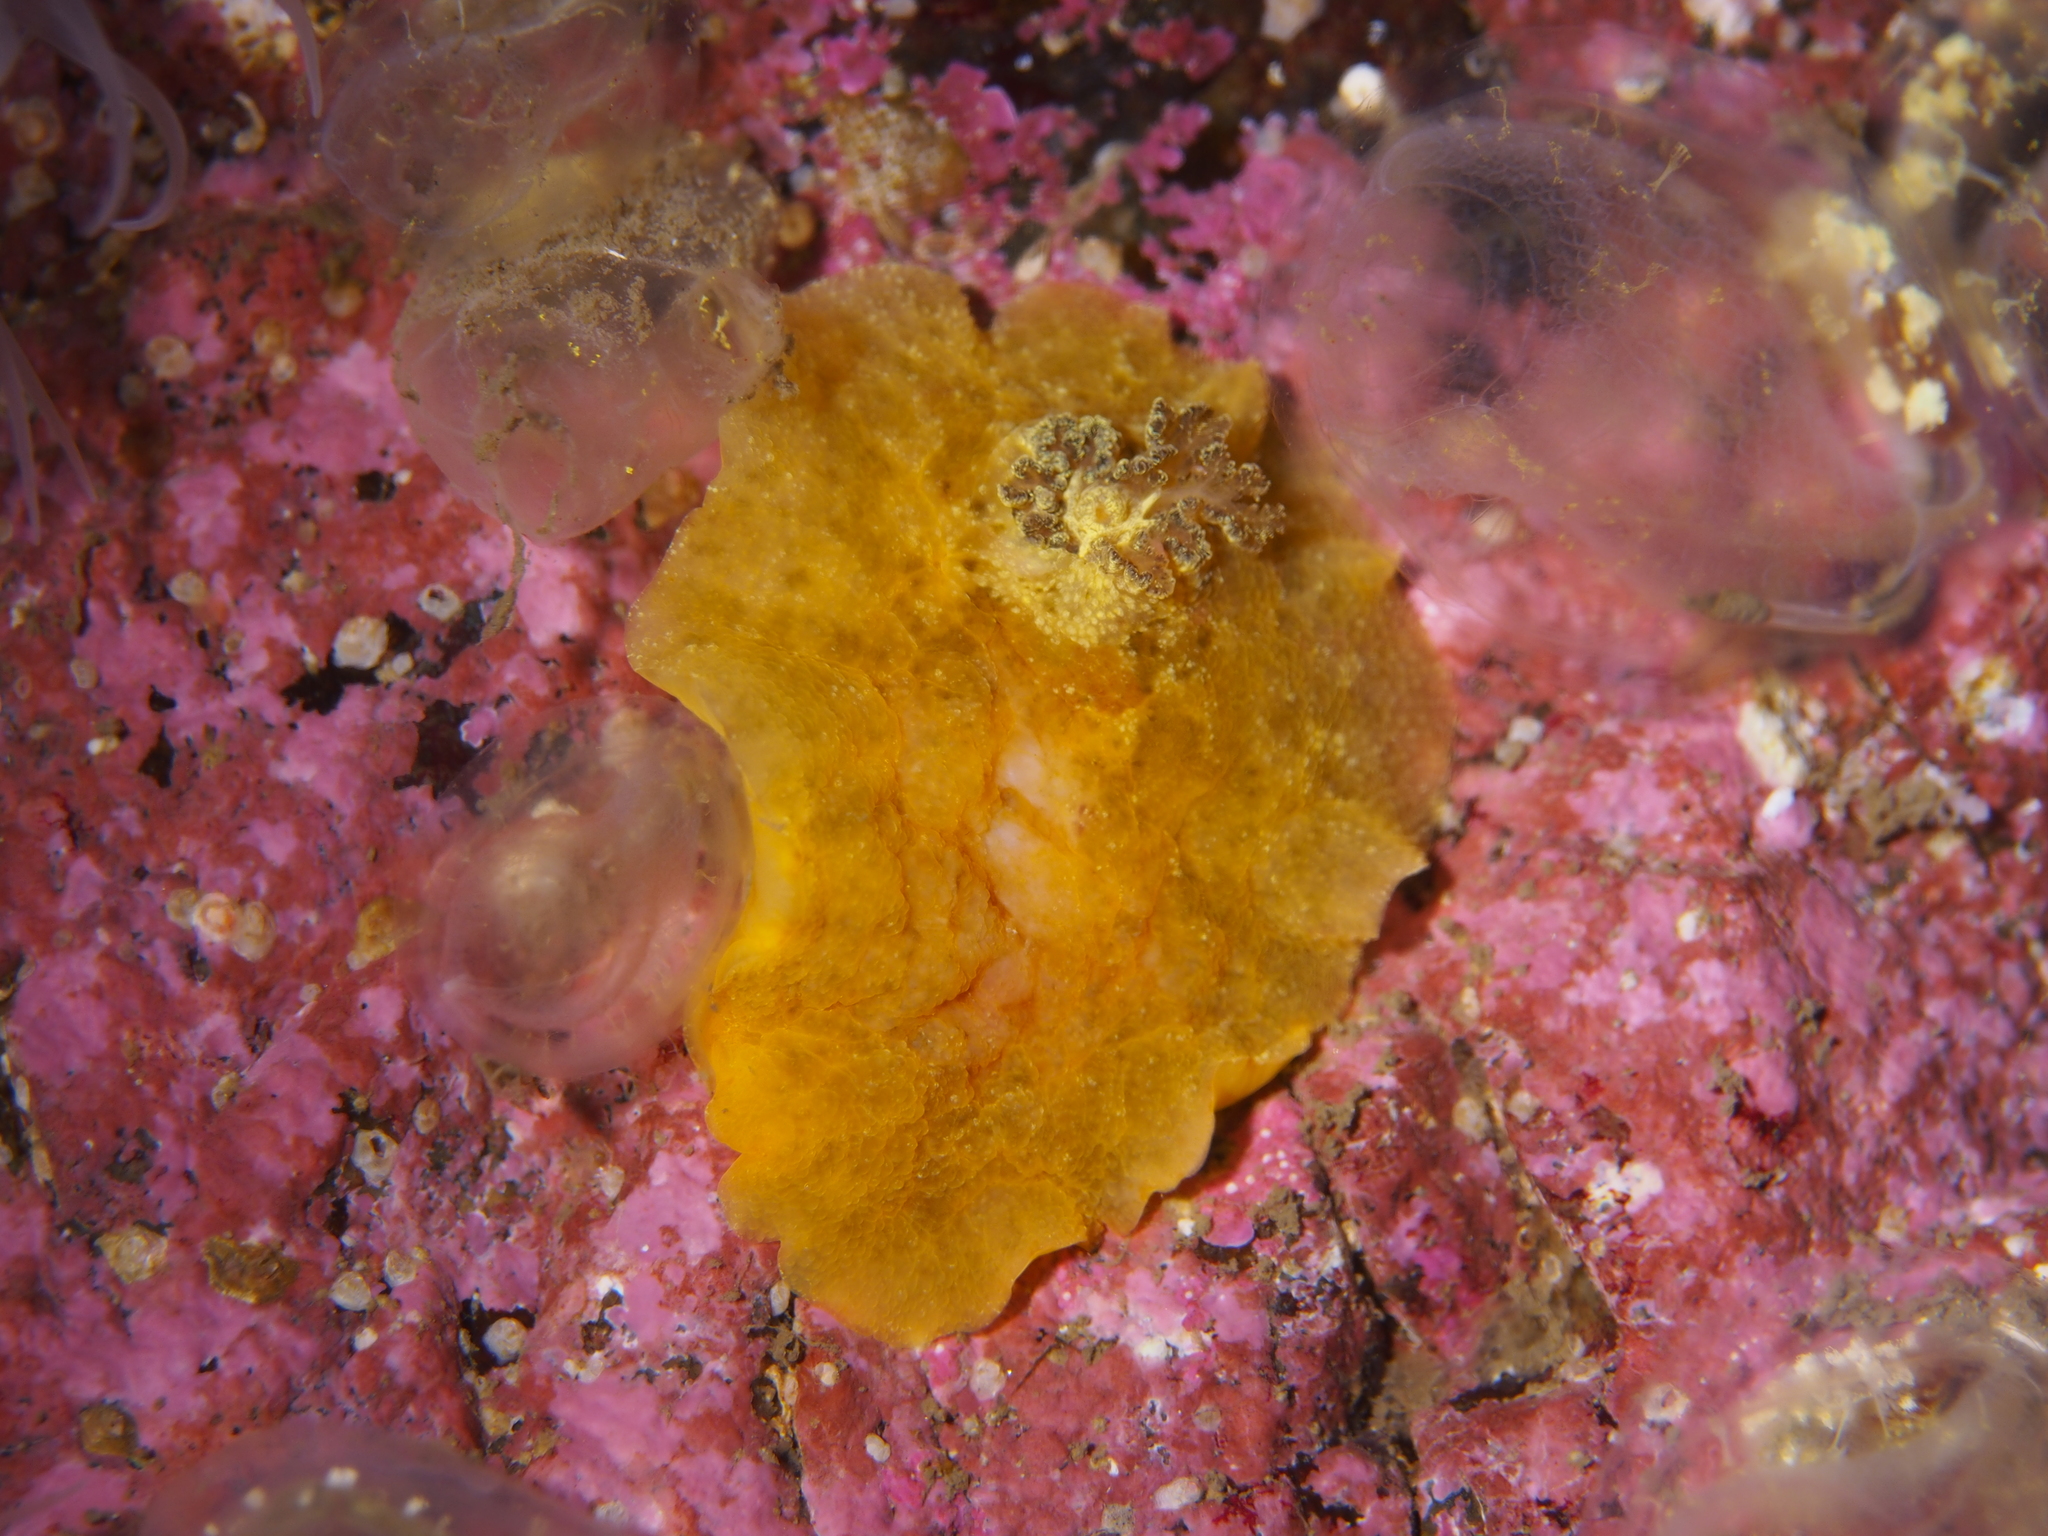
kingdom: Animalia
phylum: Mollusca
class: Gastropoda
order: Nudibranchia
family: Dorididae
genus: Doris
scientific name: Doris pseudoargus
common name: Sea lemon
